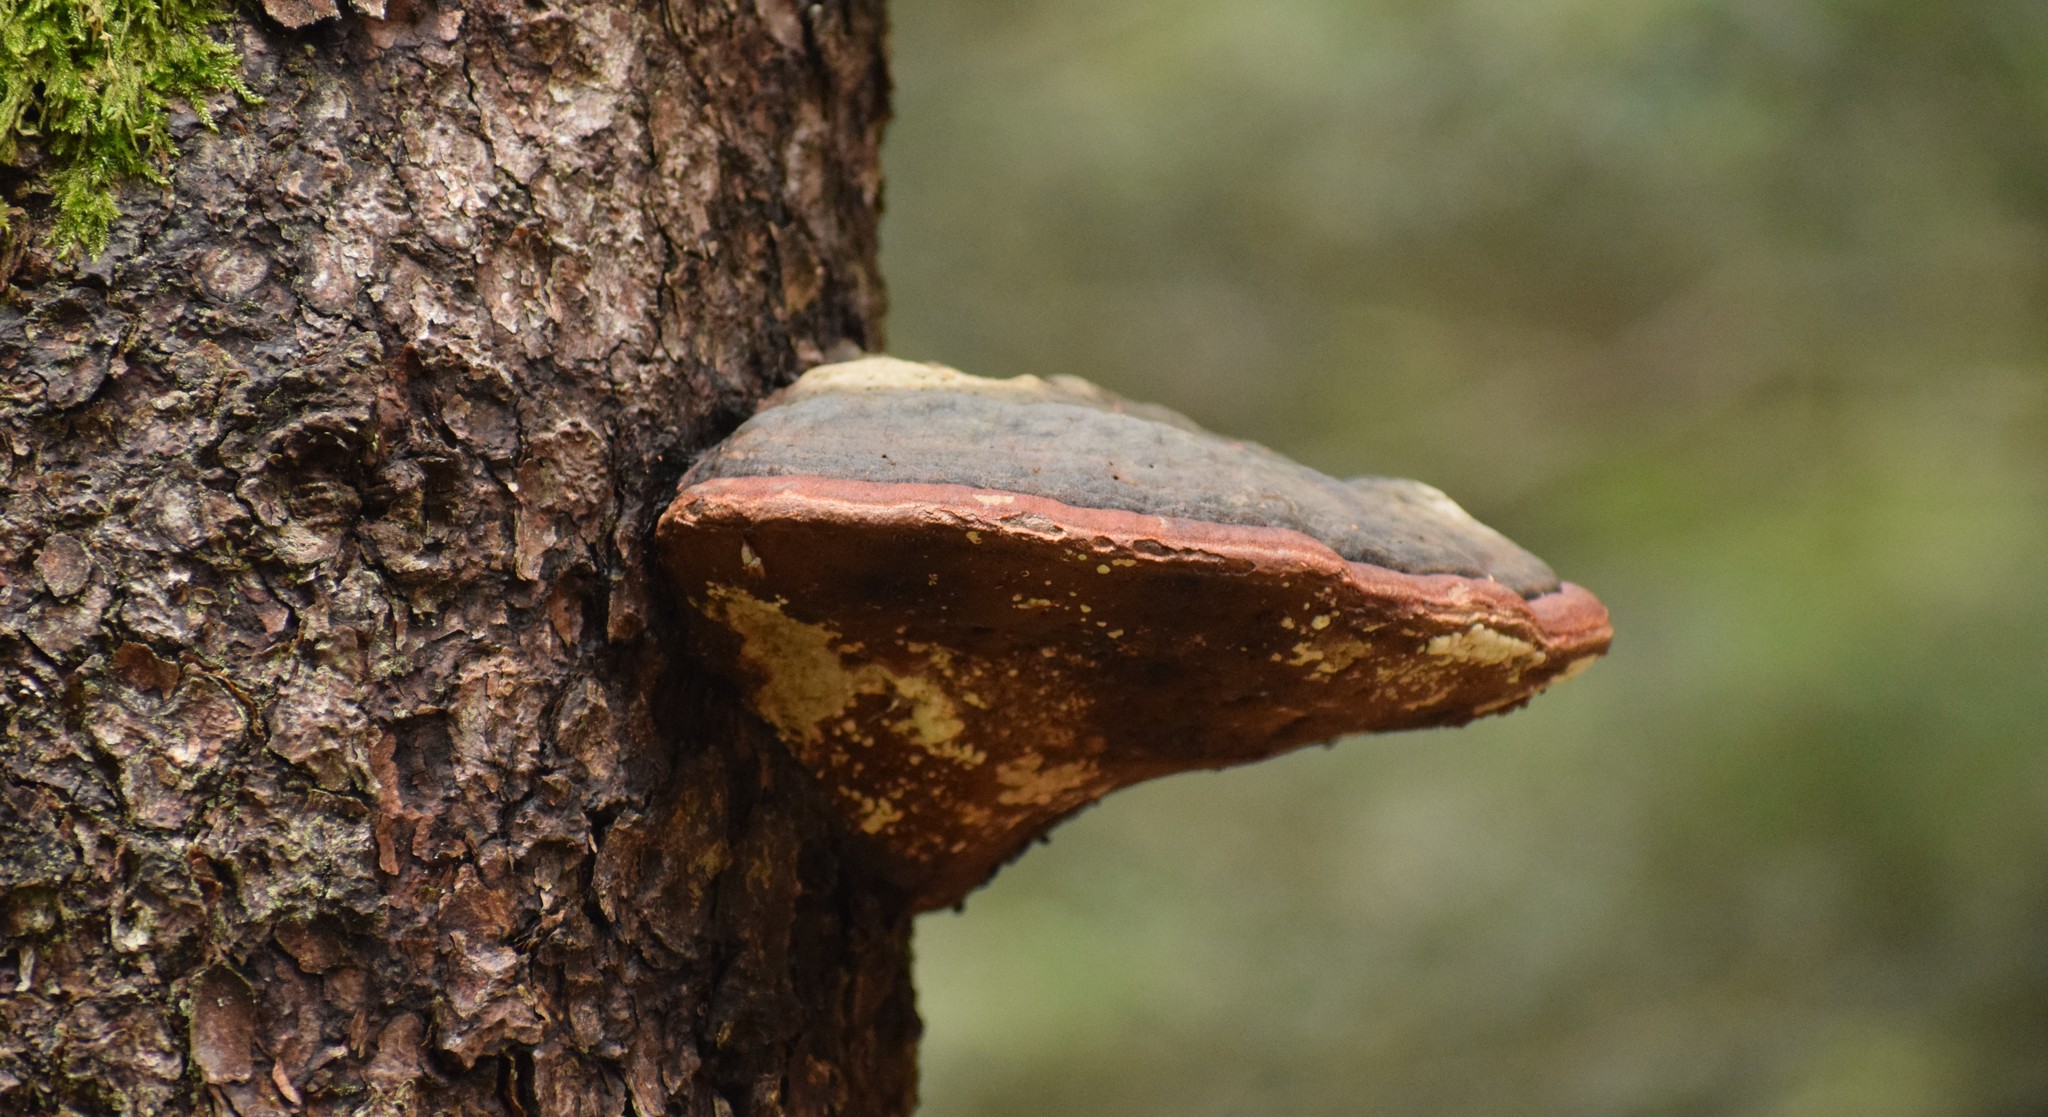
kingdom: Fungi
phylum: Basidiomycota
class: Agaricomycetes
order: Polyporales
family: Fomitopsidaceae
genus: Fomitopsis
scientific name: Fomitopsis pinicola
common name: Red-belted bracket
